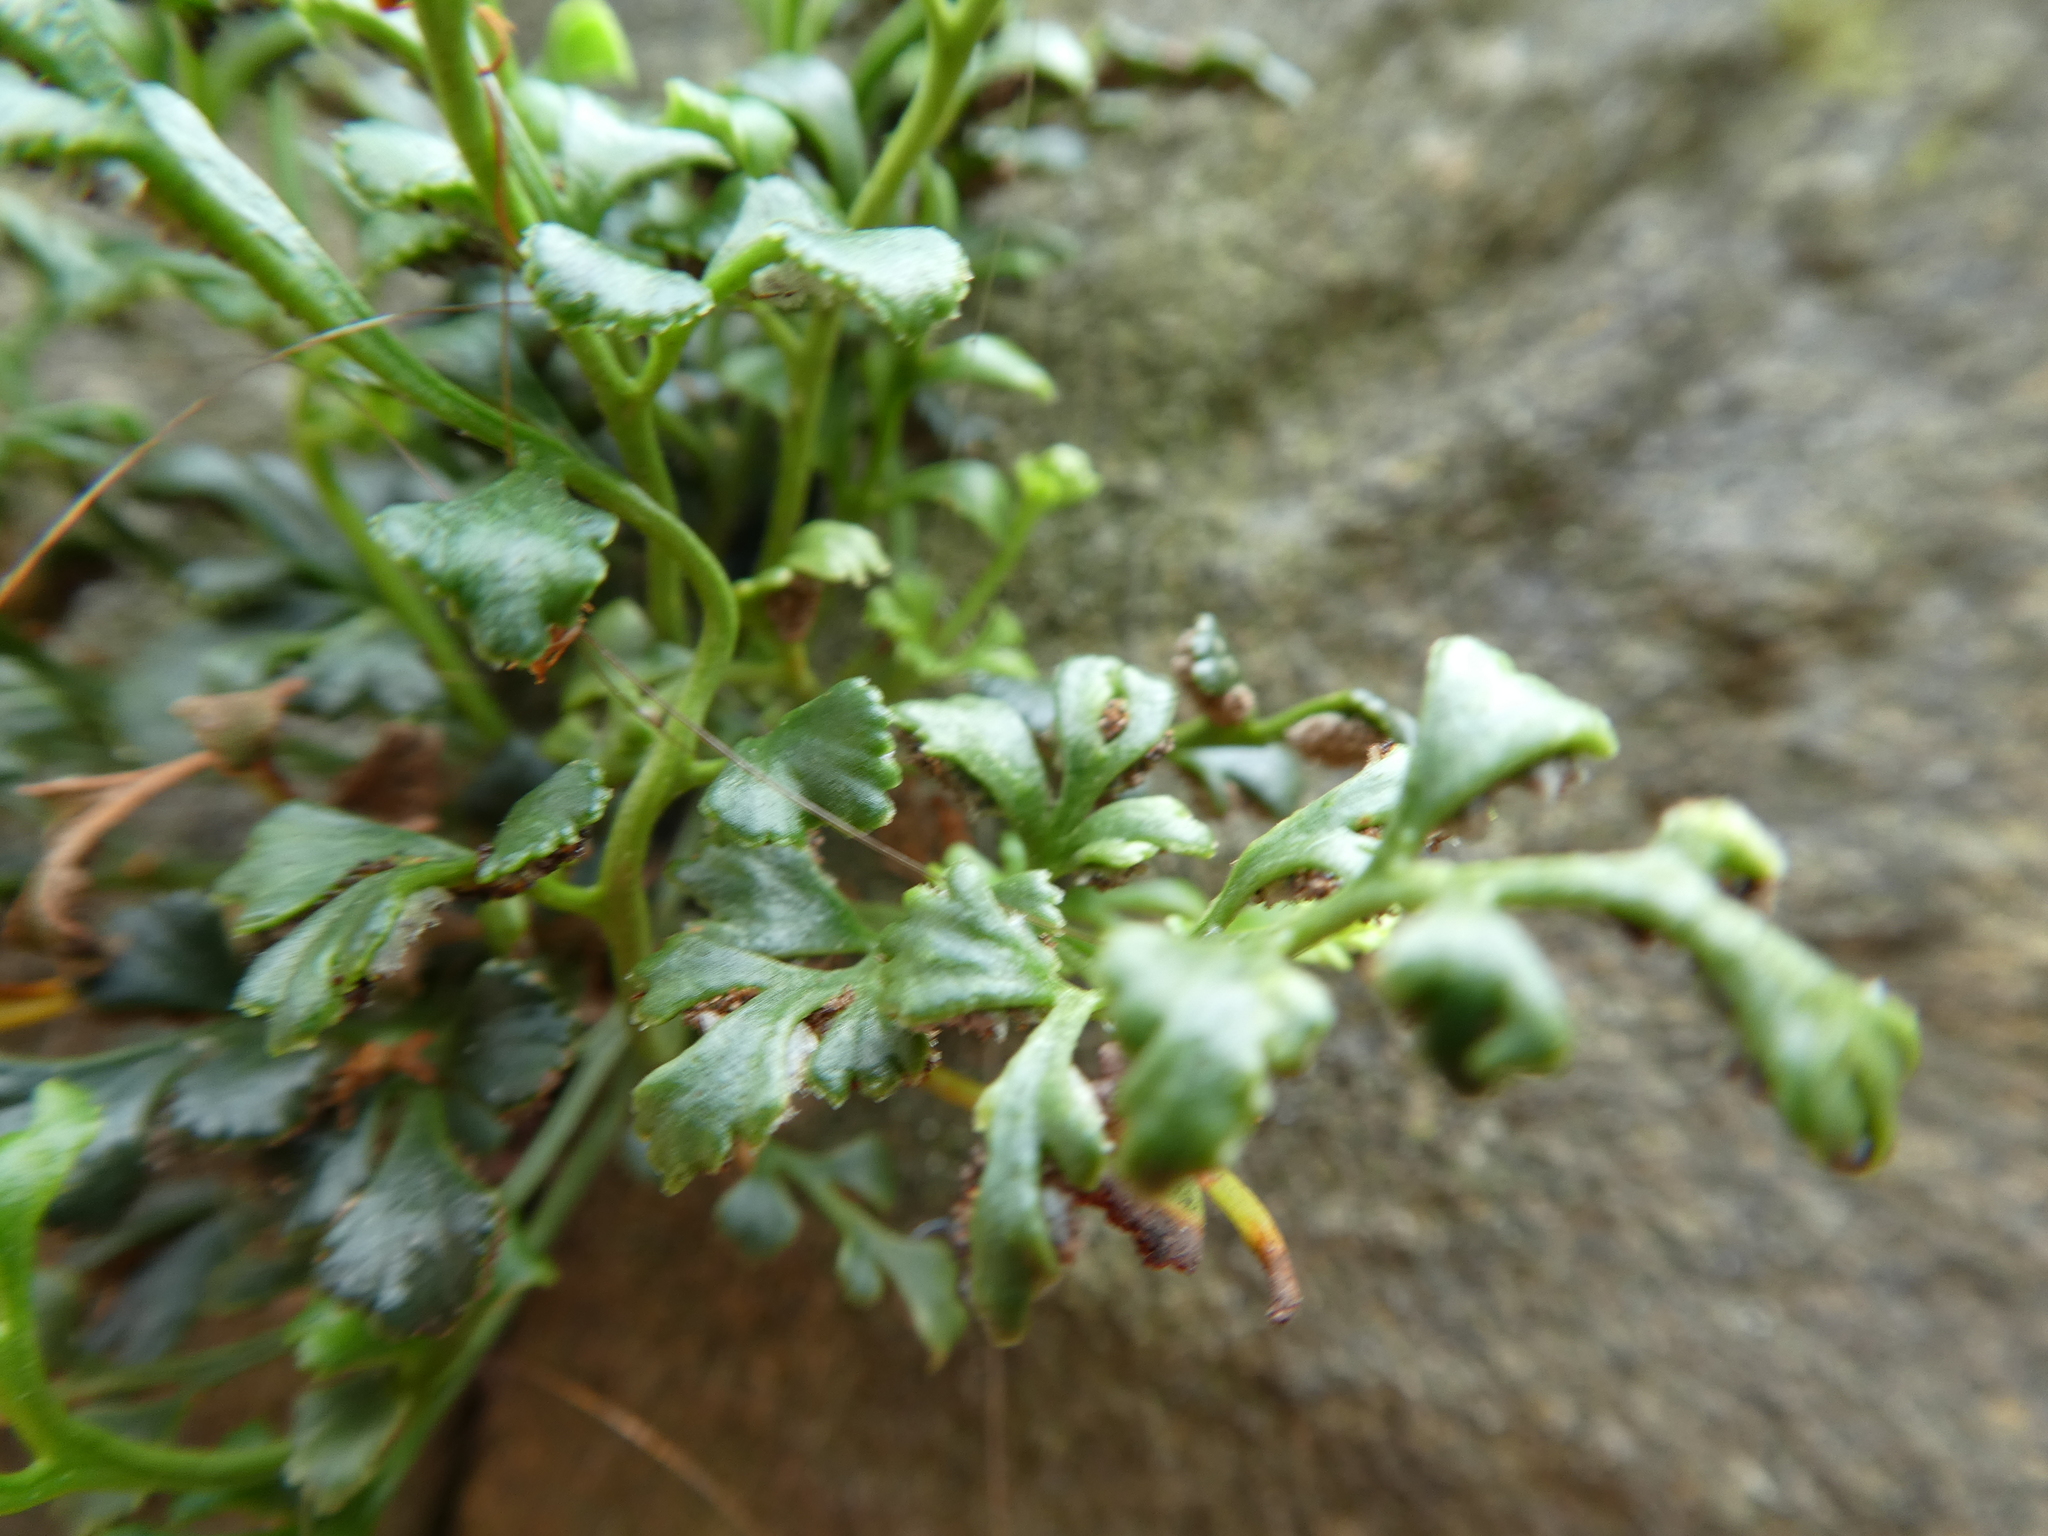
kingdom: Plantae
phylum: Tracheophyta
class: Polypodiopsida
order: Polypodiales
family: Aspleniaceae
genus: Asplenium
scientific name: Asplenium ruta-muraria
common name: Wall-rue
